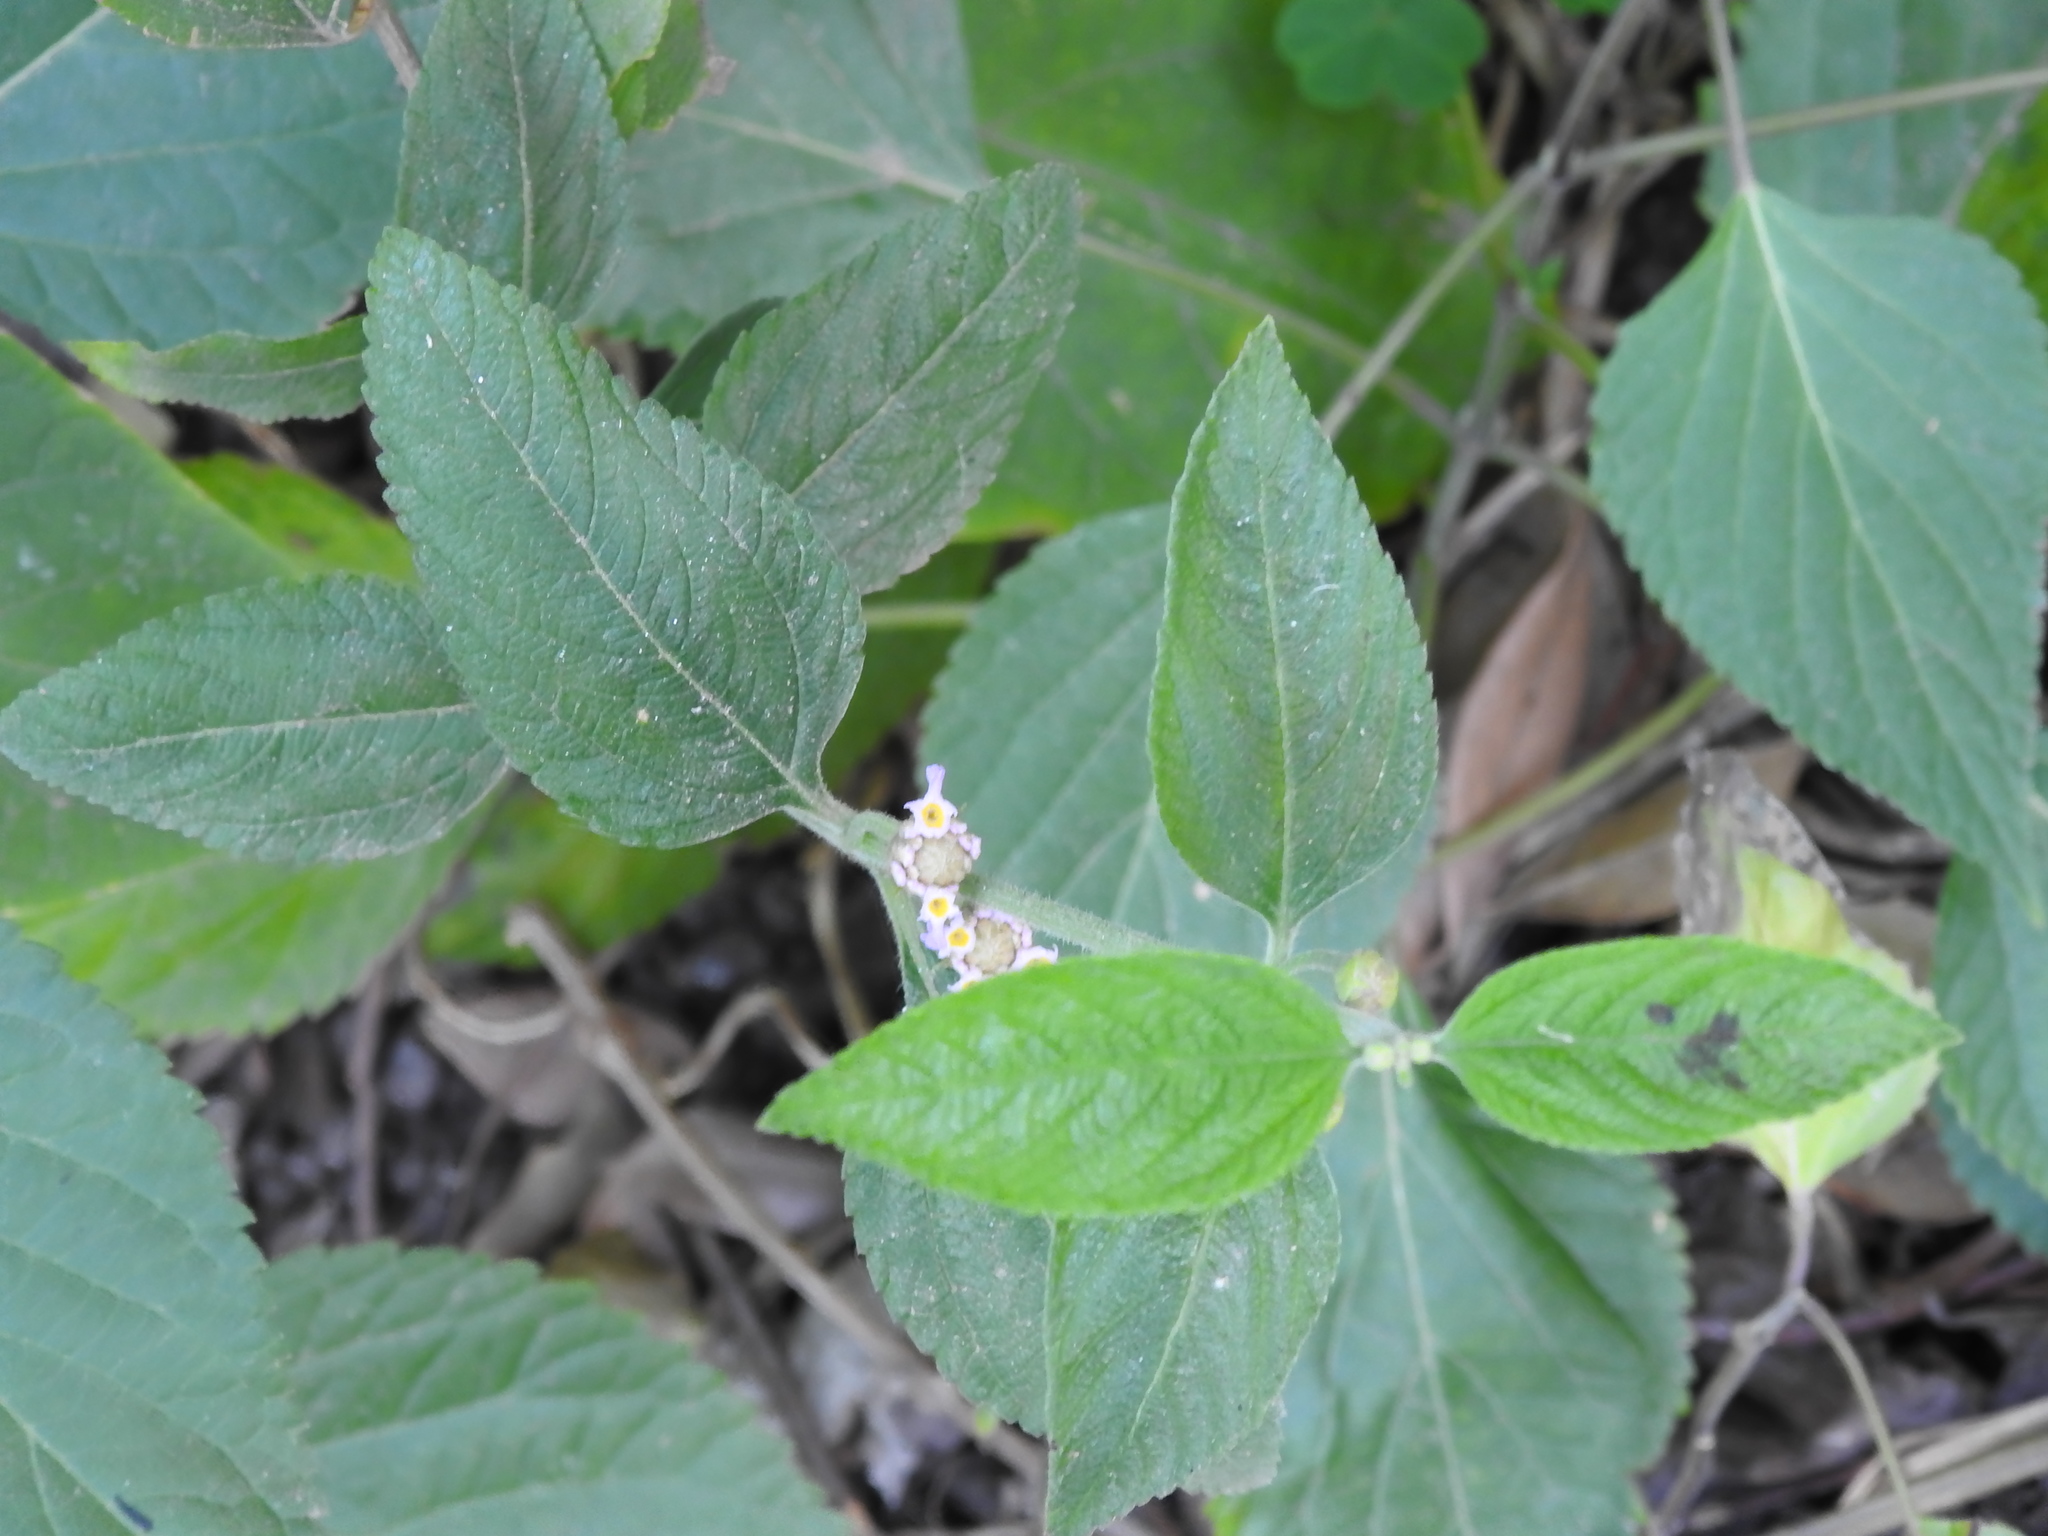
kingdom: Plantae
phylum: Tracheophyta
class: Magnoliopsida
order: Lamiales
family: Verbenaceae
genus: Lippia
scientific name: Lippia alba
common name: Bushy matgrass
